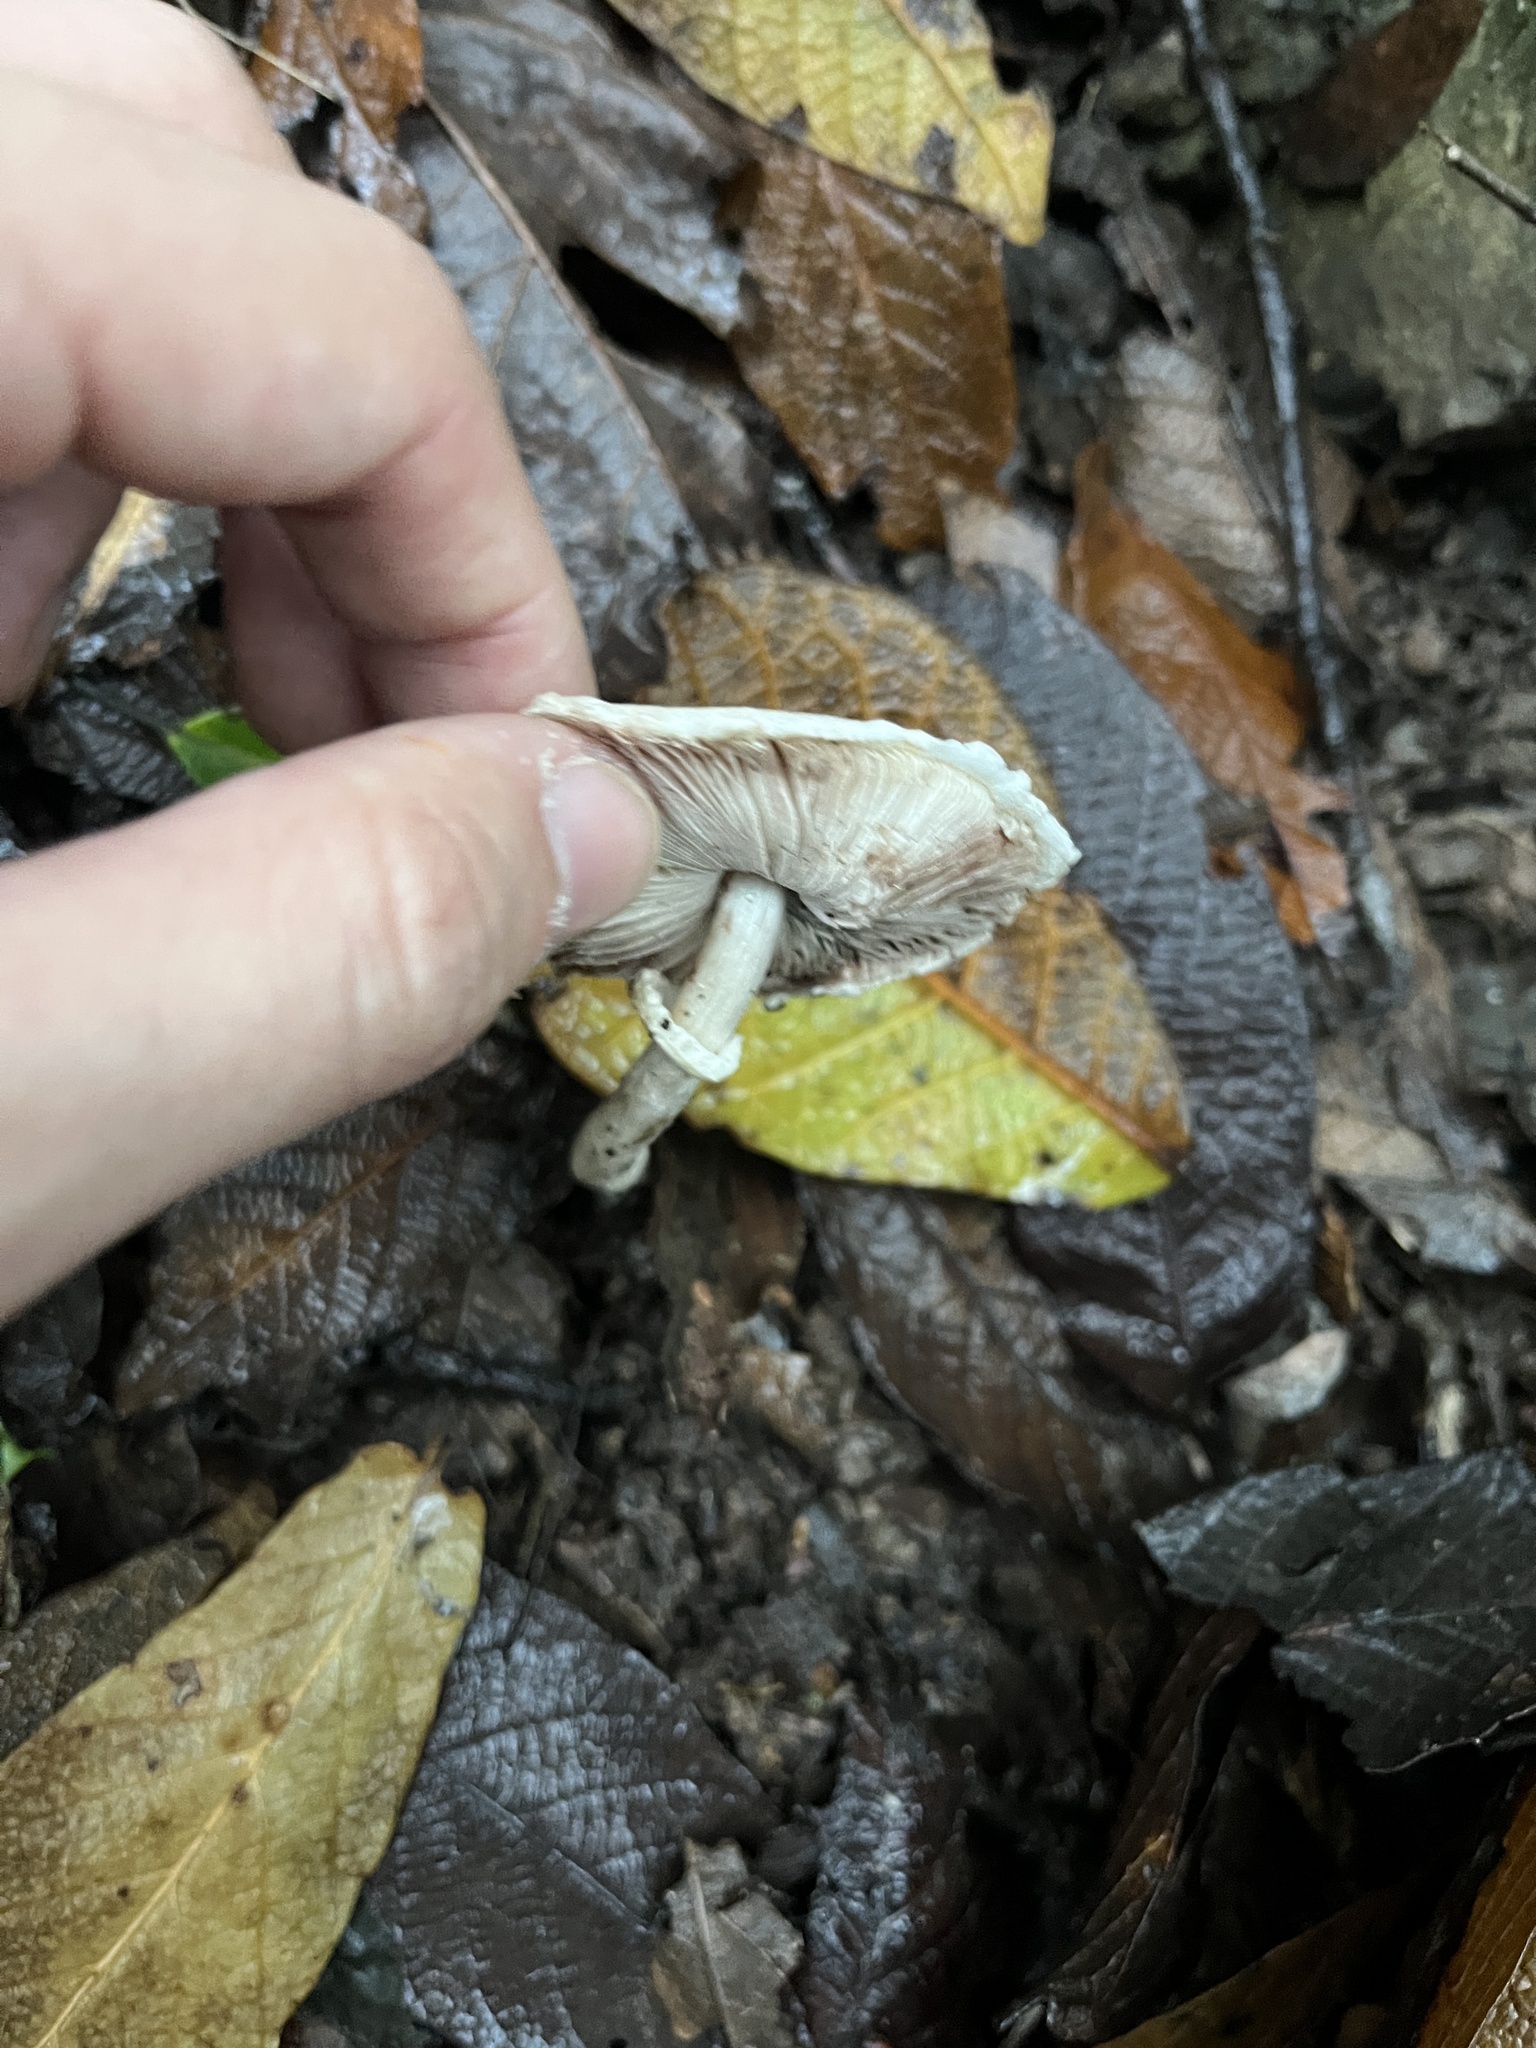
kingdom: Fungi
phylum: Basidiomycota
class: Agaricomycetes
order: Agaricales
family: Agaricaceae
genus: Agaricus
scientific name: Agaricus diminutivus
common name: Diminutive agaricus
